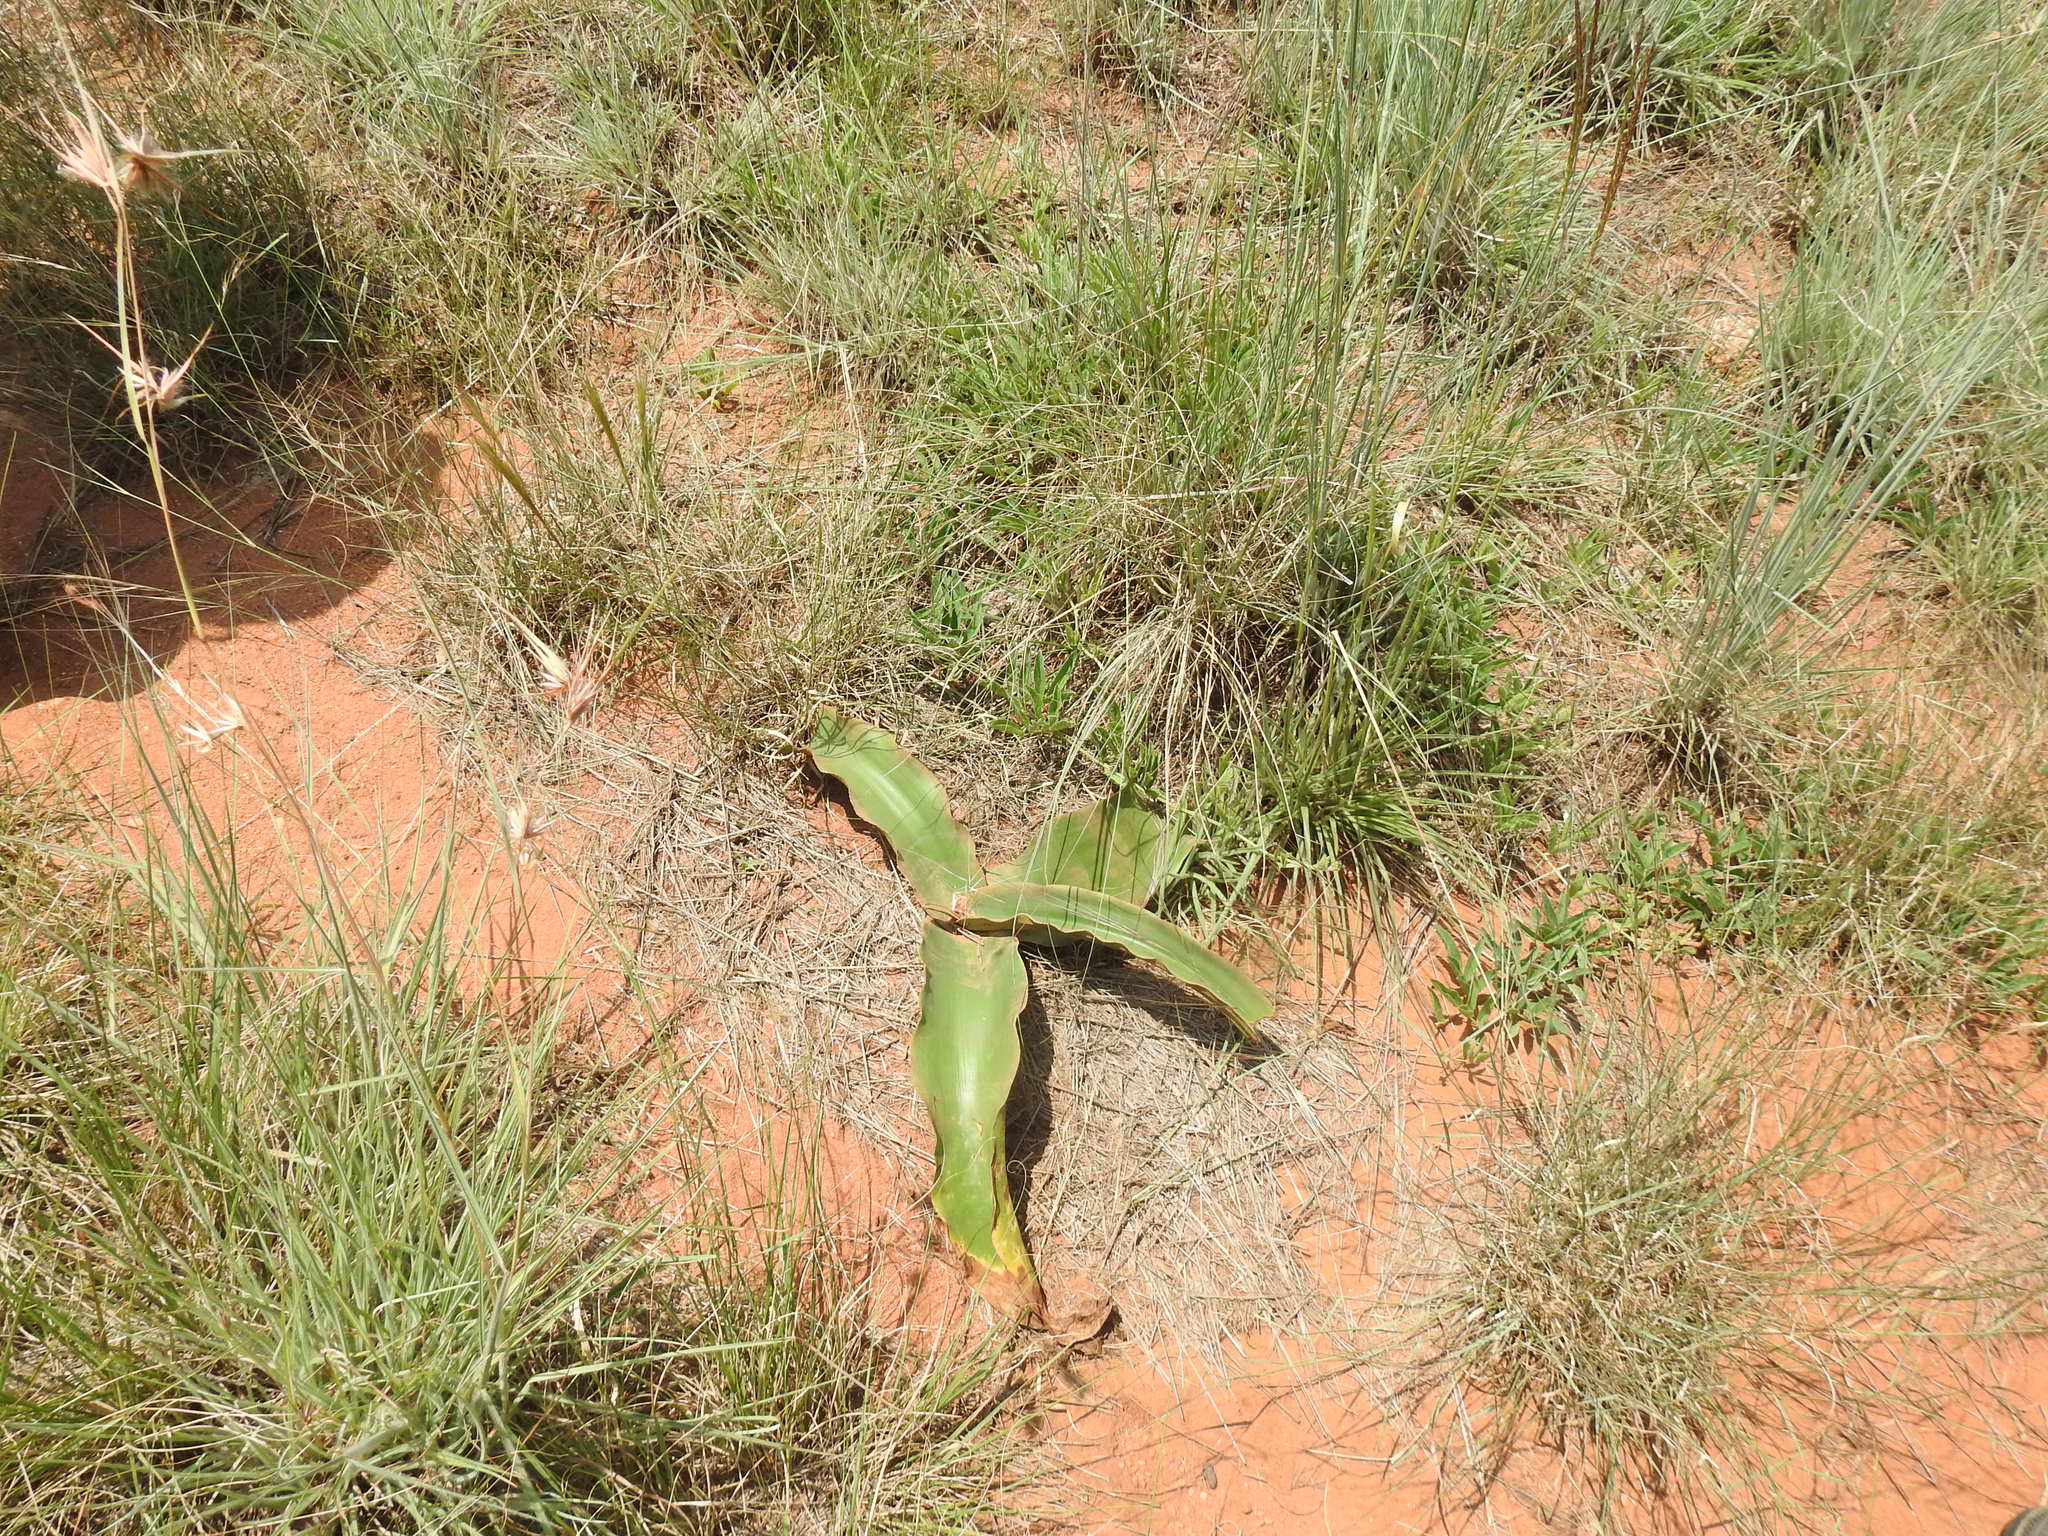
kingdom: Plantae
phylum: Tracheophyta
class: Liliopsida
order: Asparagales
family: Amaryllidaceae
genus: Crinum
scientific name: Crinum graminicola
